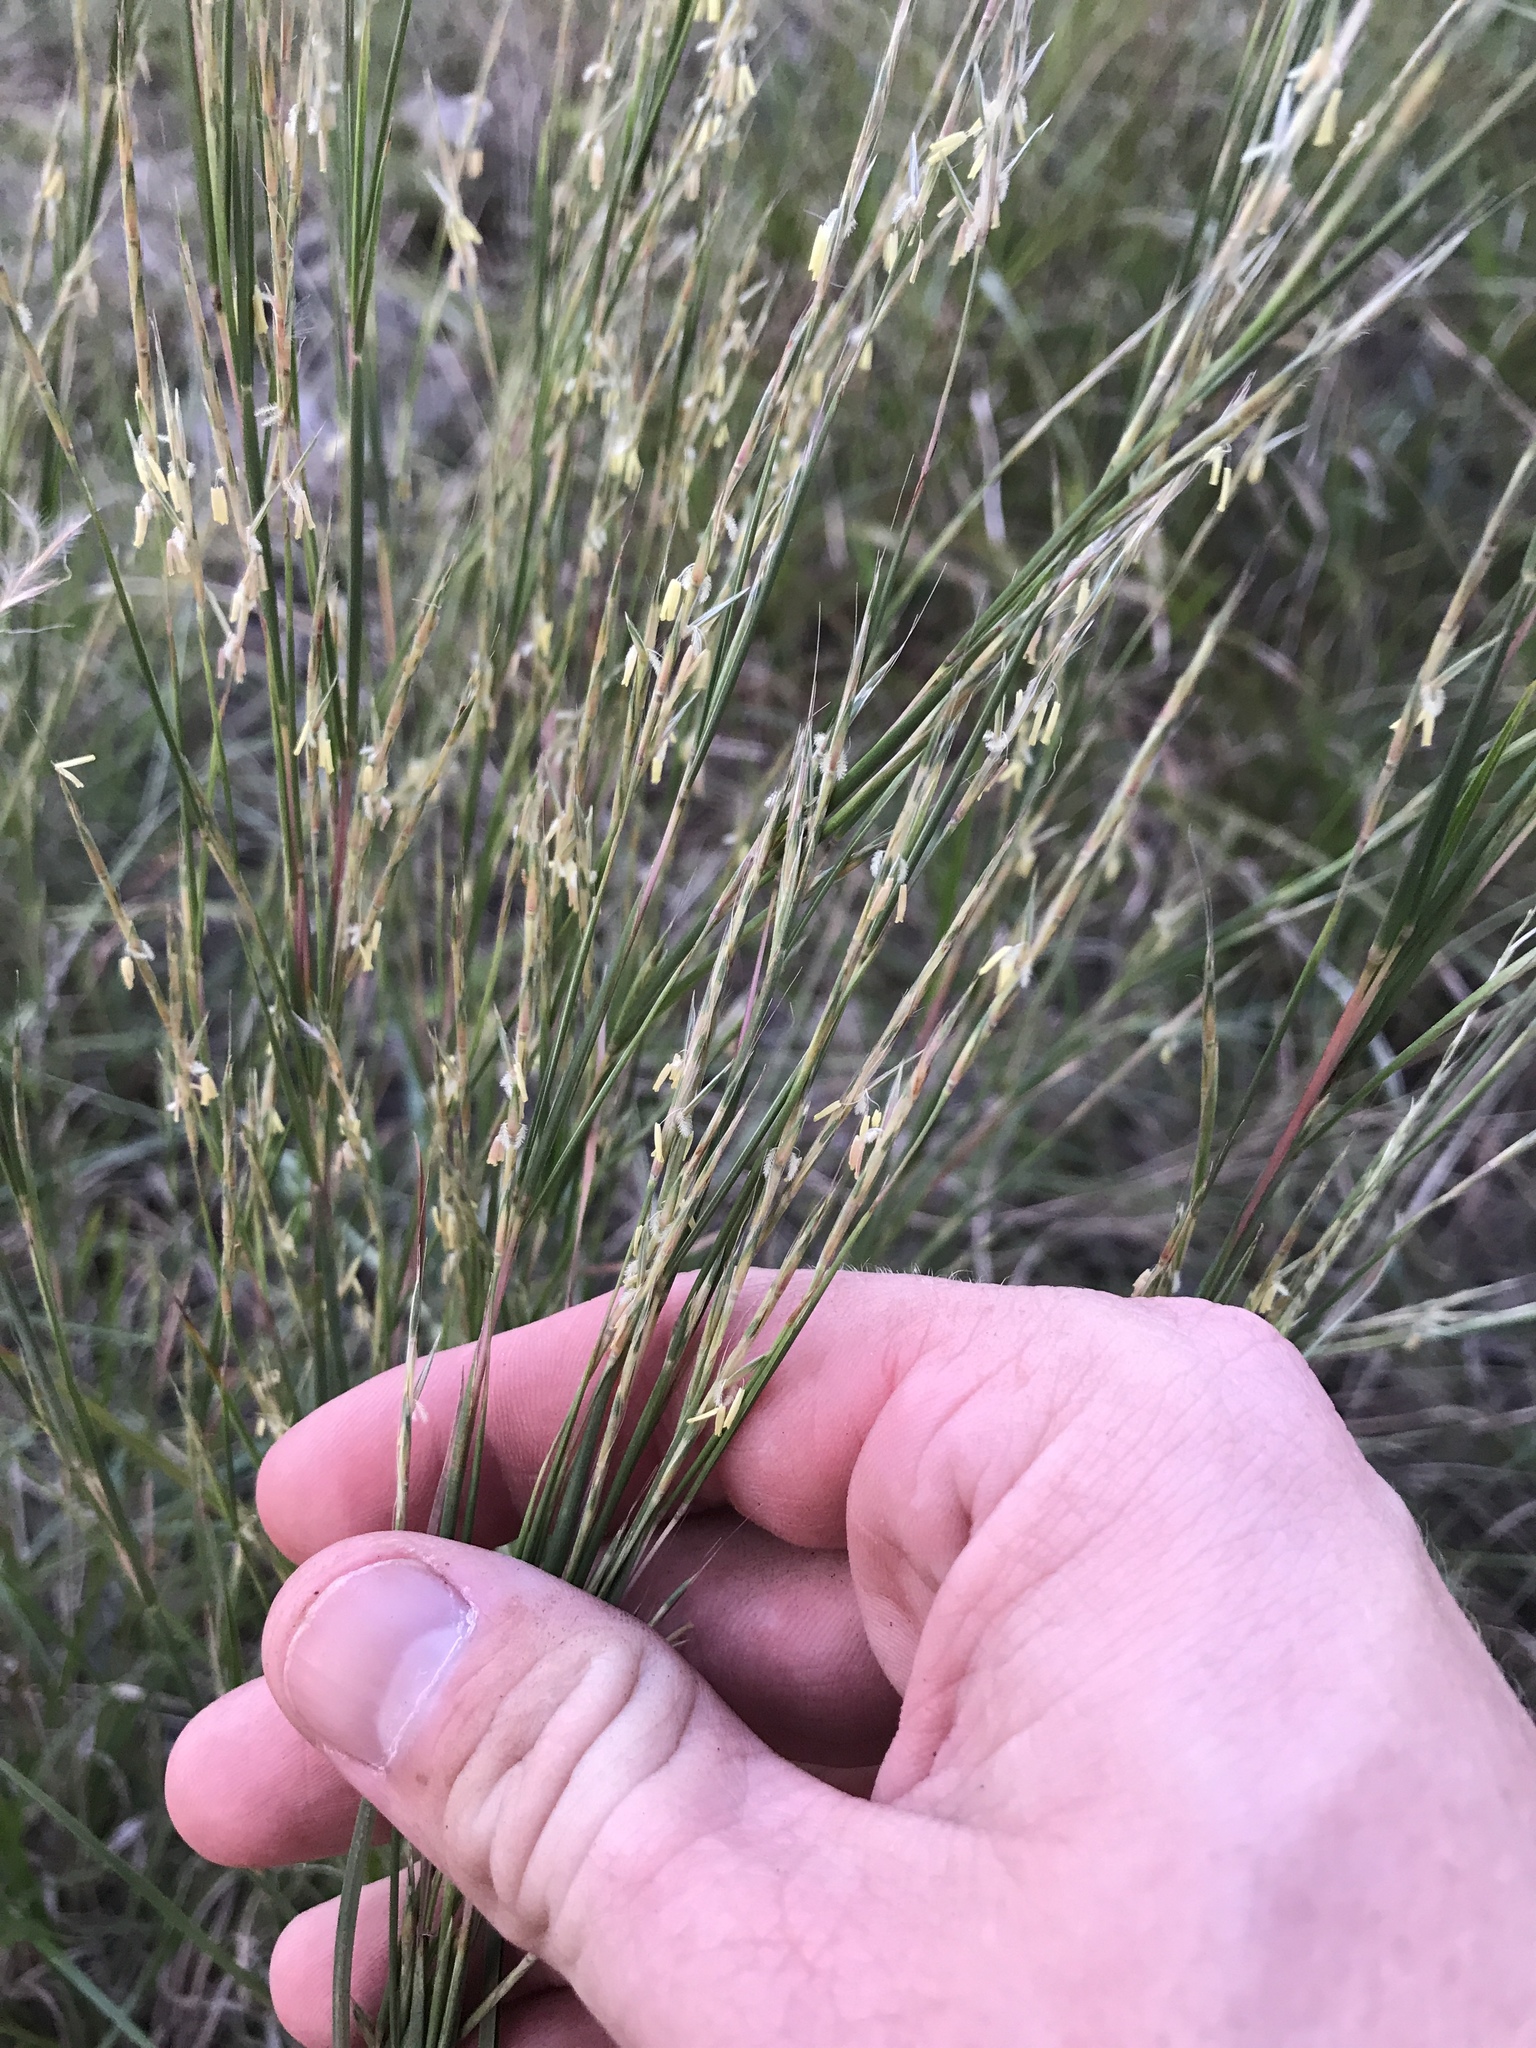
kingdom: Plantae
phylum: Tracheophyta
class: Liliopsida
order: Poales
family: Poaceae
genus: Schizachyrium
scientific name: Schizachyrium scoparium
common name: Little bluestem
